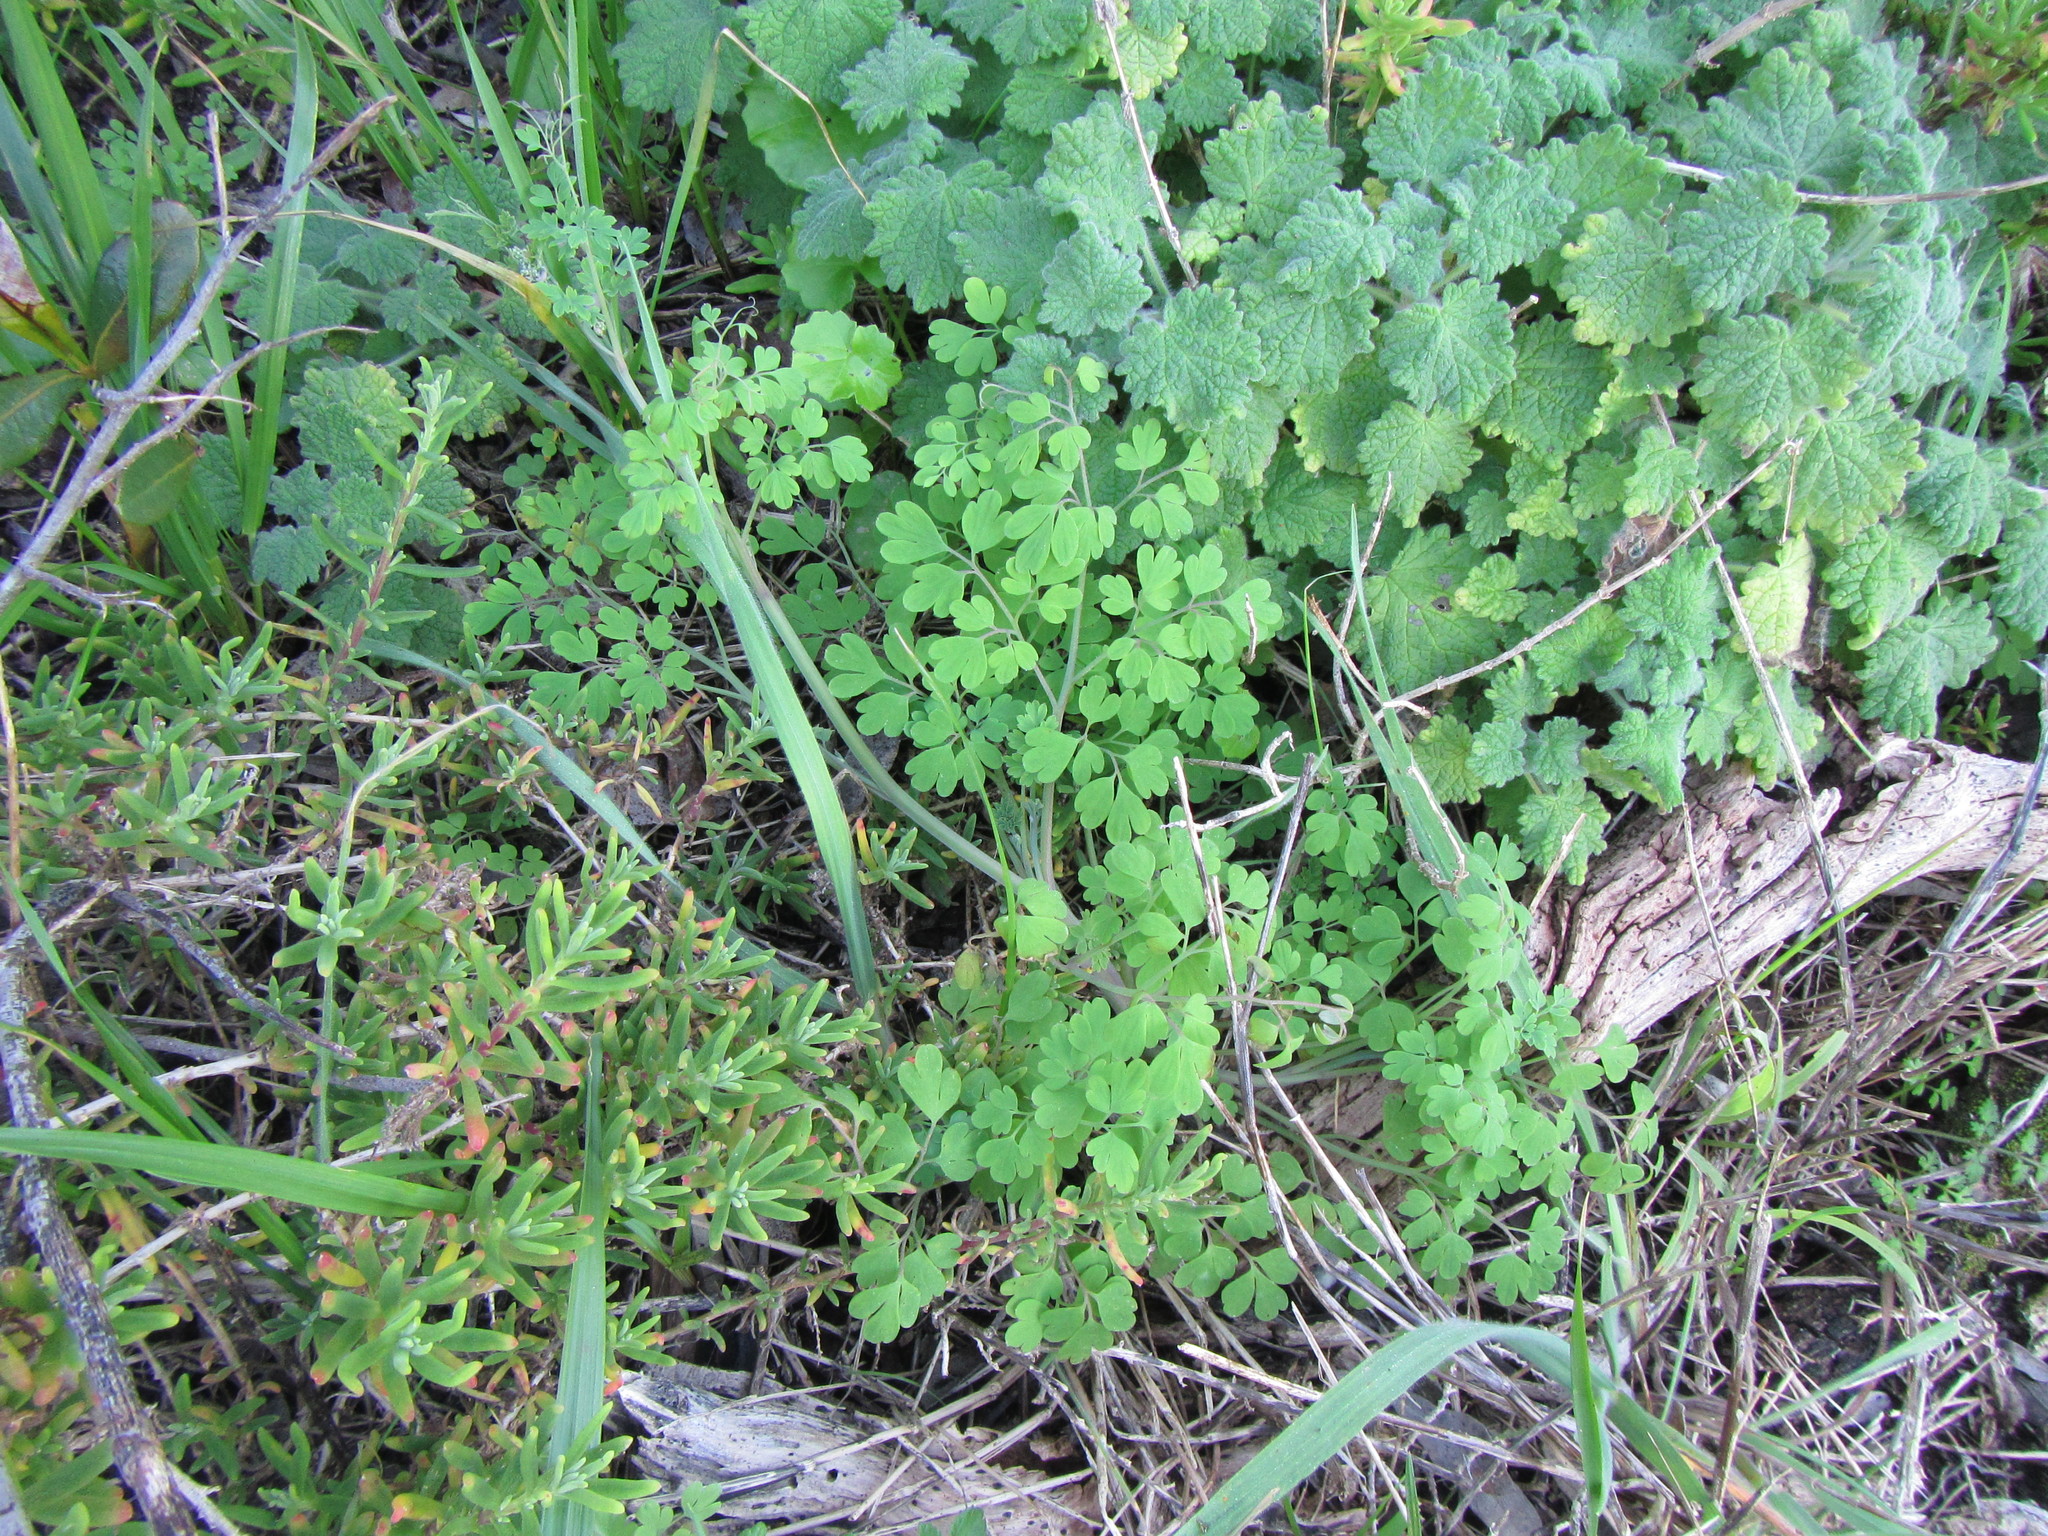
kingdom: Plantae
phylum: Tracheophyta
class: Magnoliopsida
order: Ranunculales
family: Papaveraceae
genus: Cysticapnos
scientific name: Cysticapnos cracca
